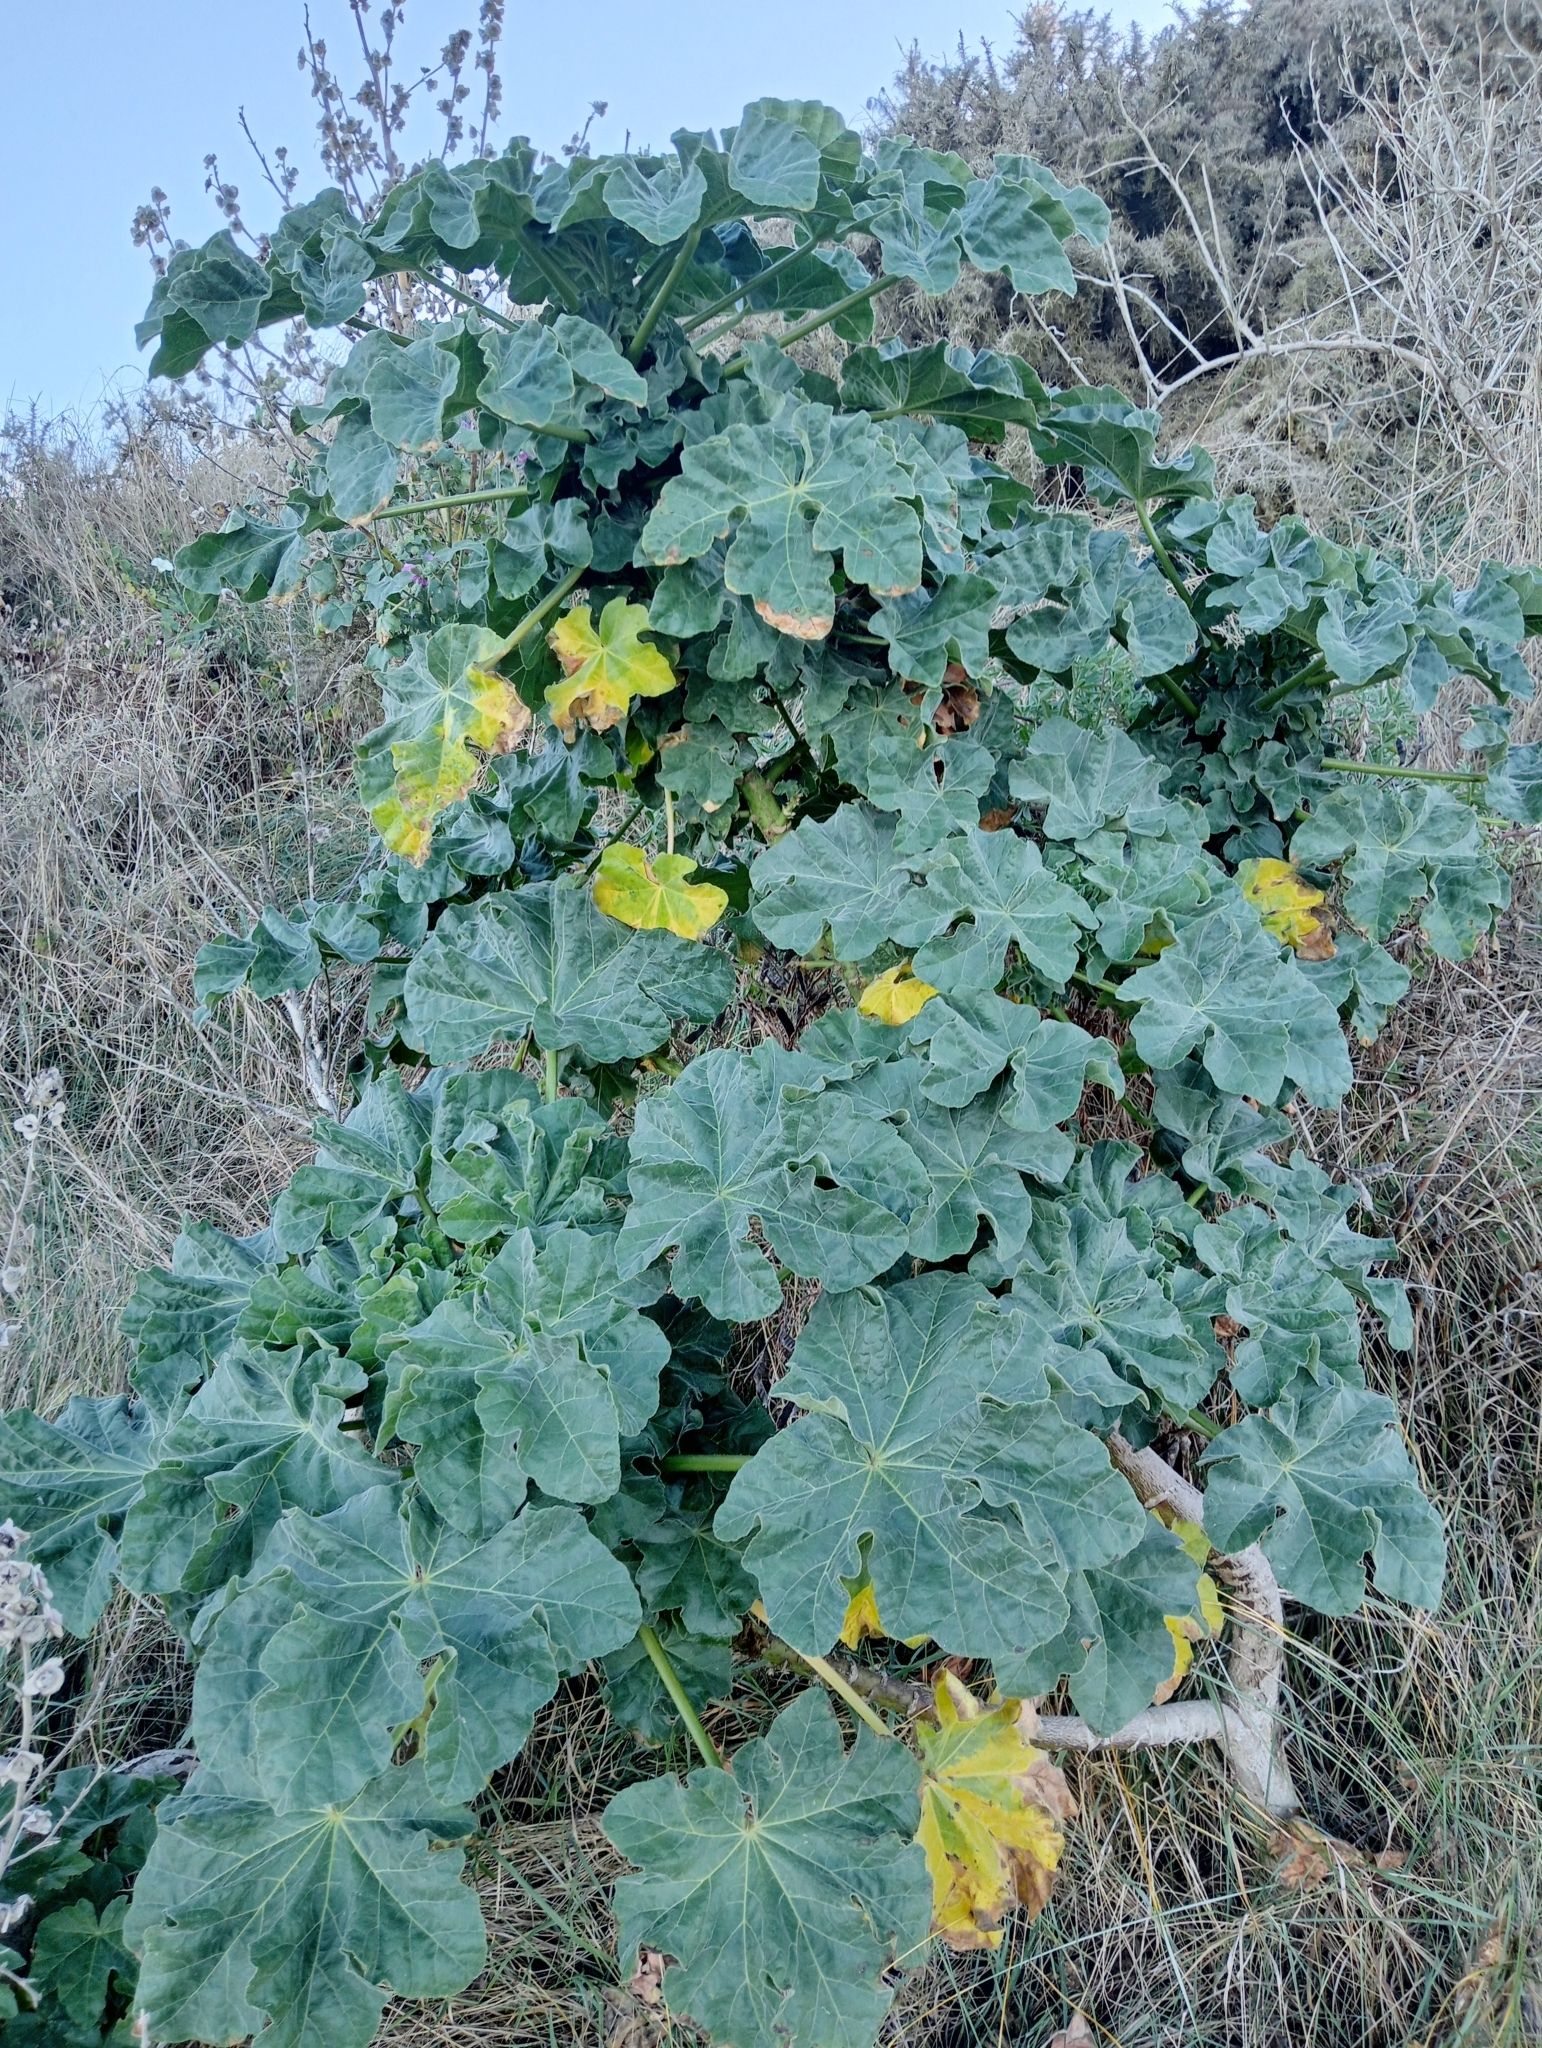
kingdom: Plantae
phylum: Tracheophyta
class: Magnoliopsida
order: Malvales
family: Malvaceae
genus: Malva
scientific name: Malva arborea
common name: Tree mallow
